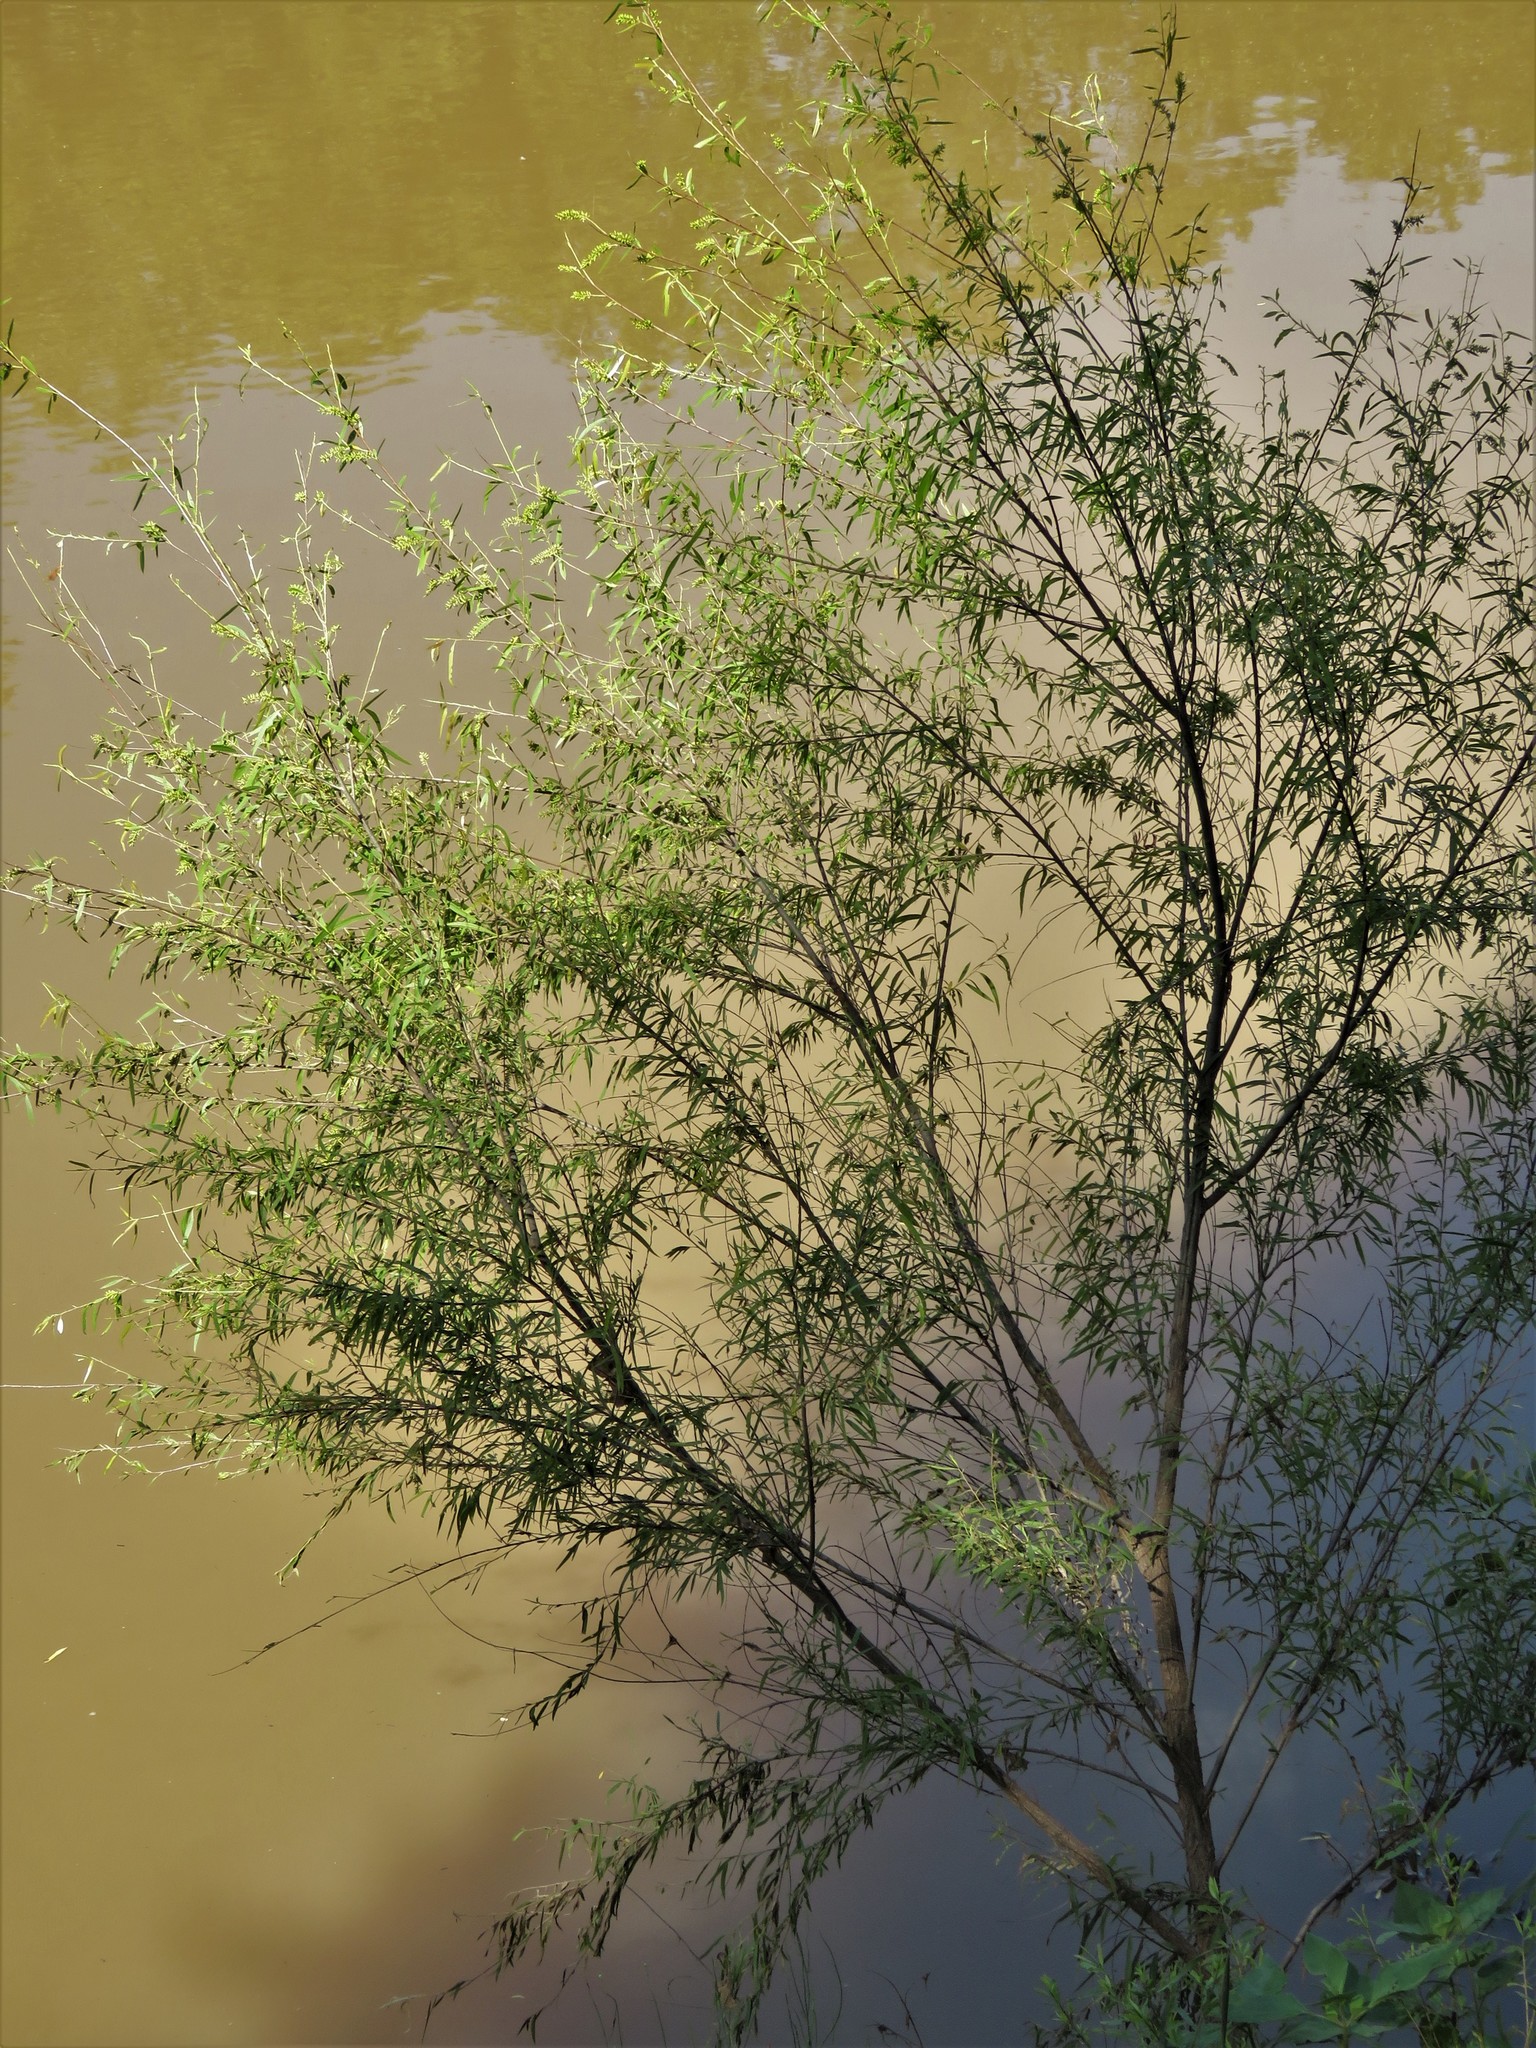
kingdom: Plantae
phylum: Tracheophyta
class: Magnoliopsida
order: Malpighiales
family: Salicaceae
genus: Salix
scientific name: Salix nigra
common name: Black willow
